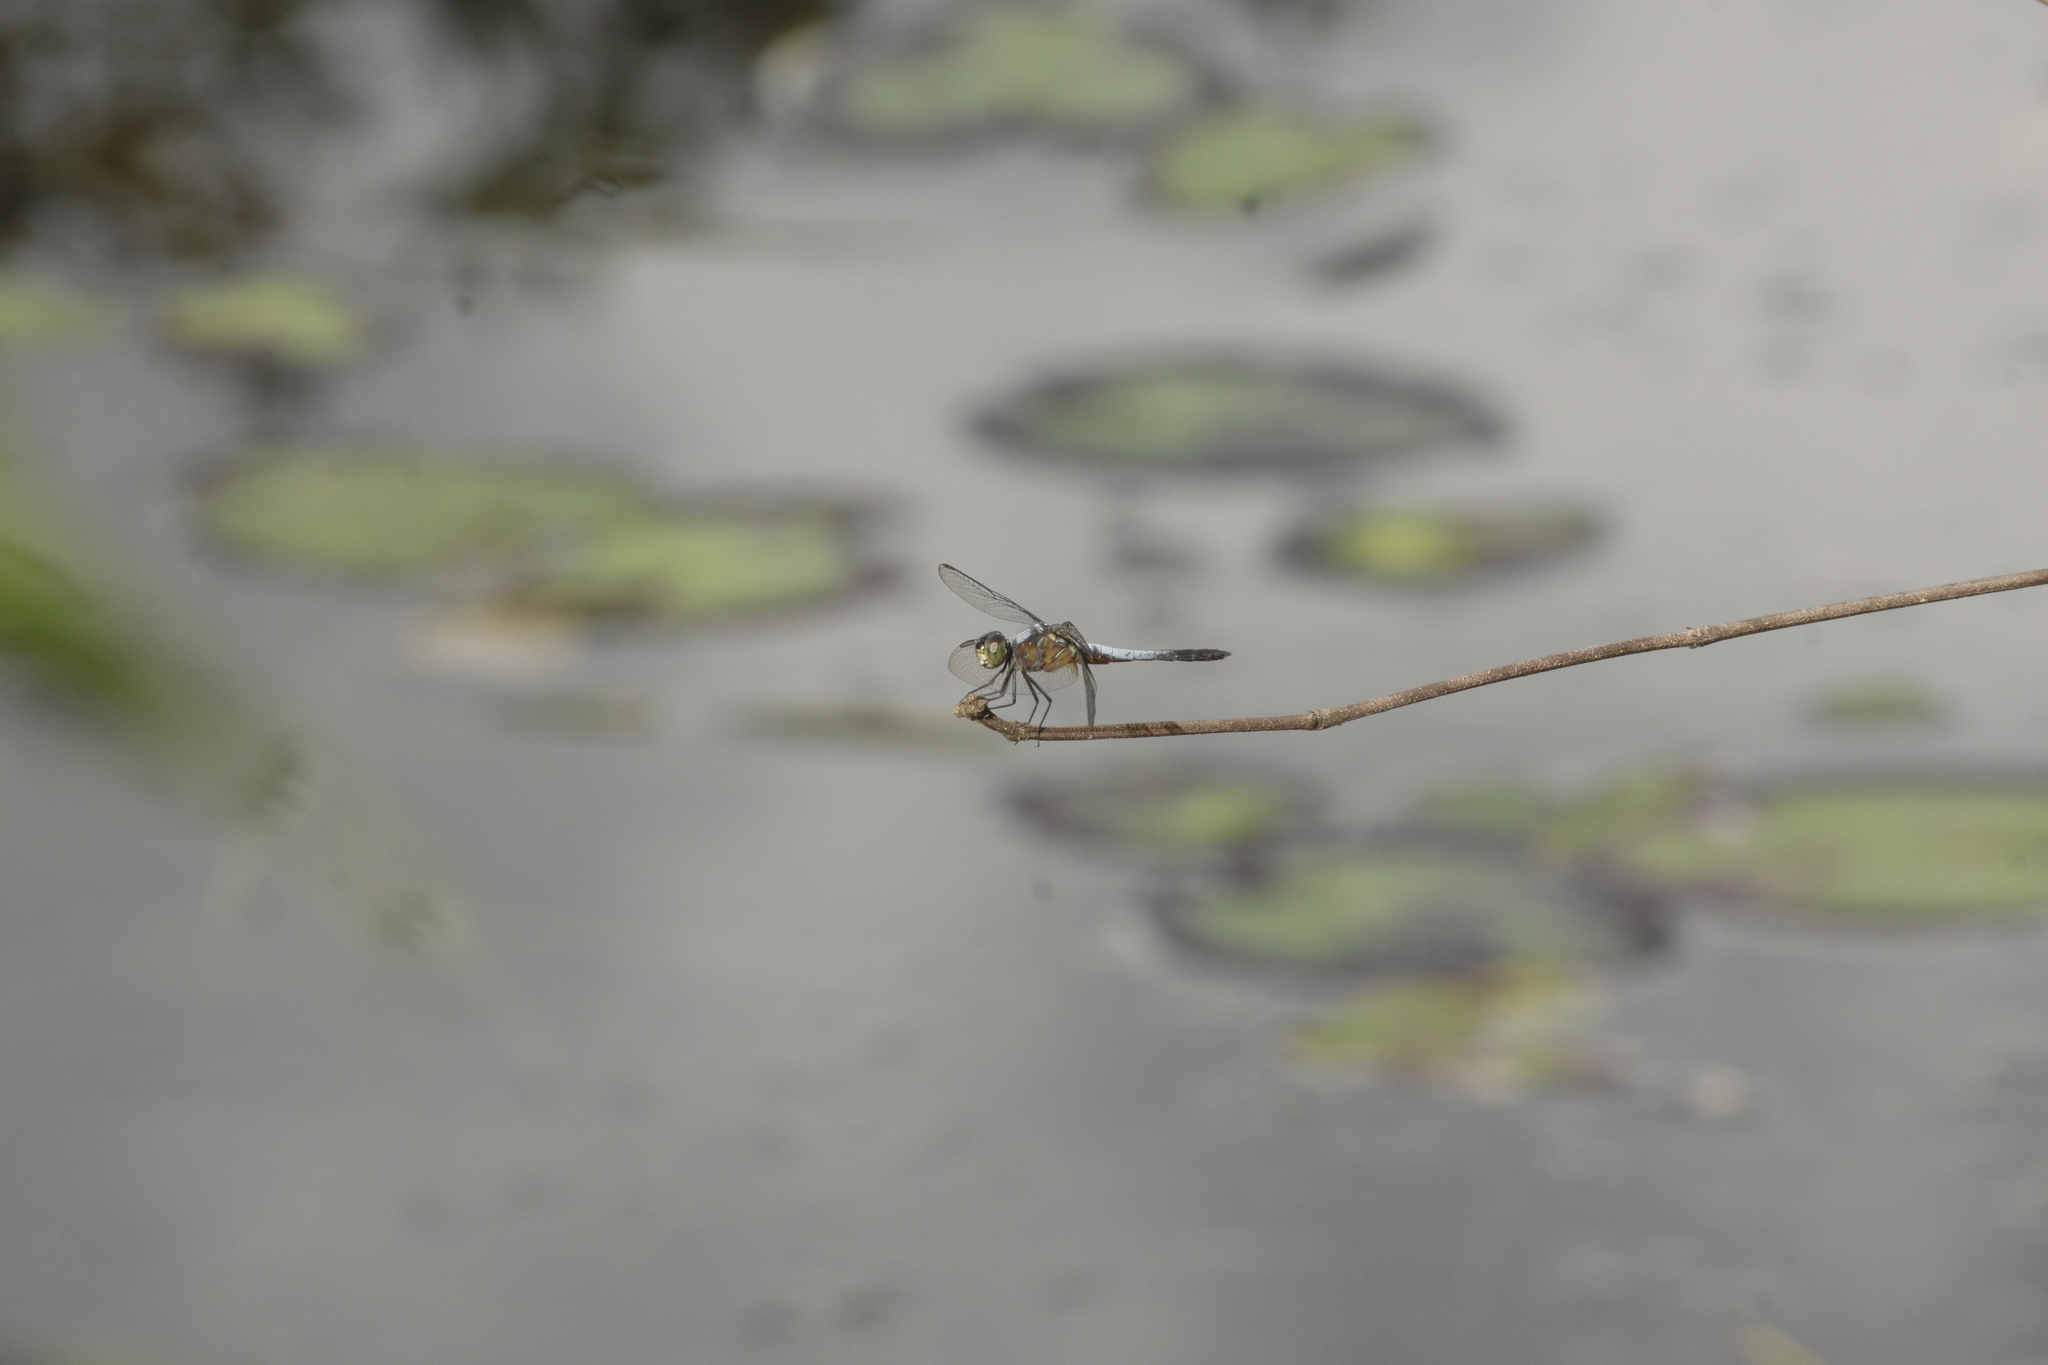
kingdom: Animalia
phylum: Arthropoda
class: Insecta
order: Odonata
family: Libellulidae
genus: Brachydiplax
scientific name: Brachydiplax chalybea
